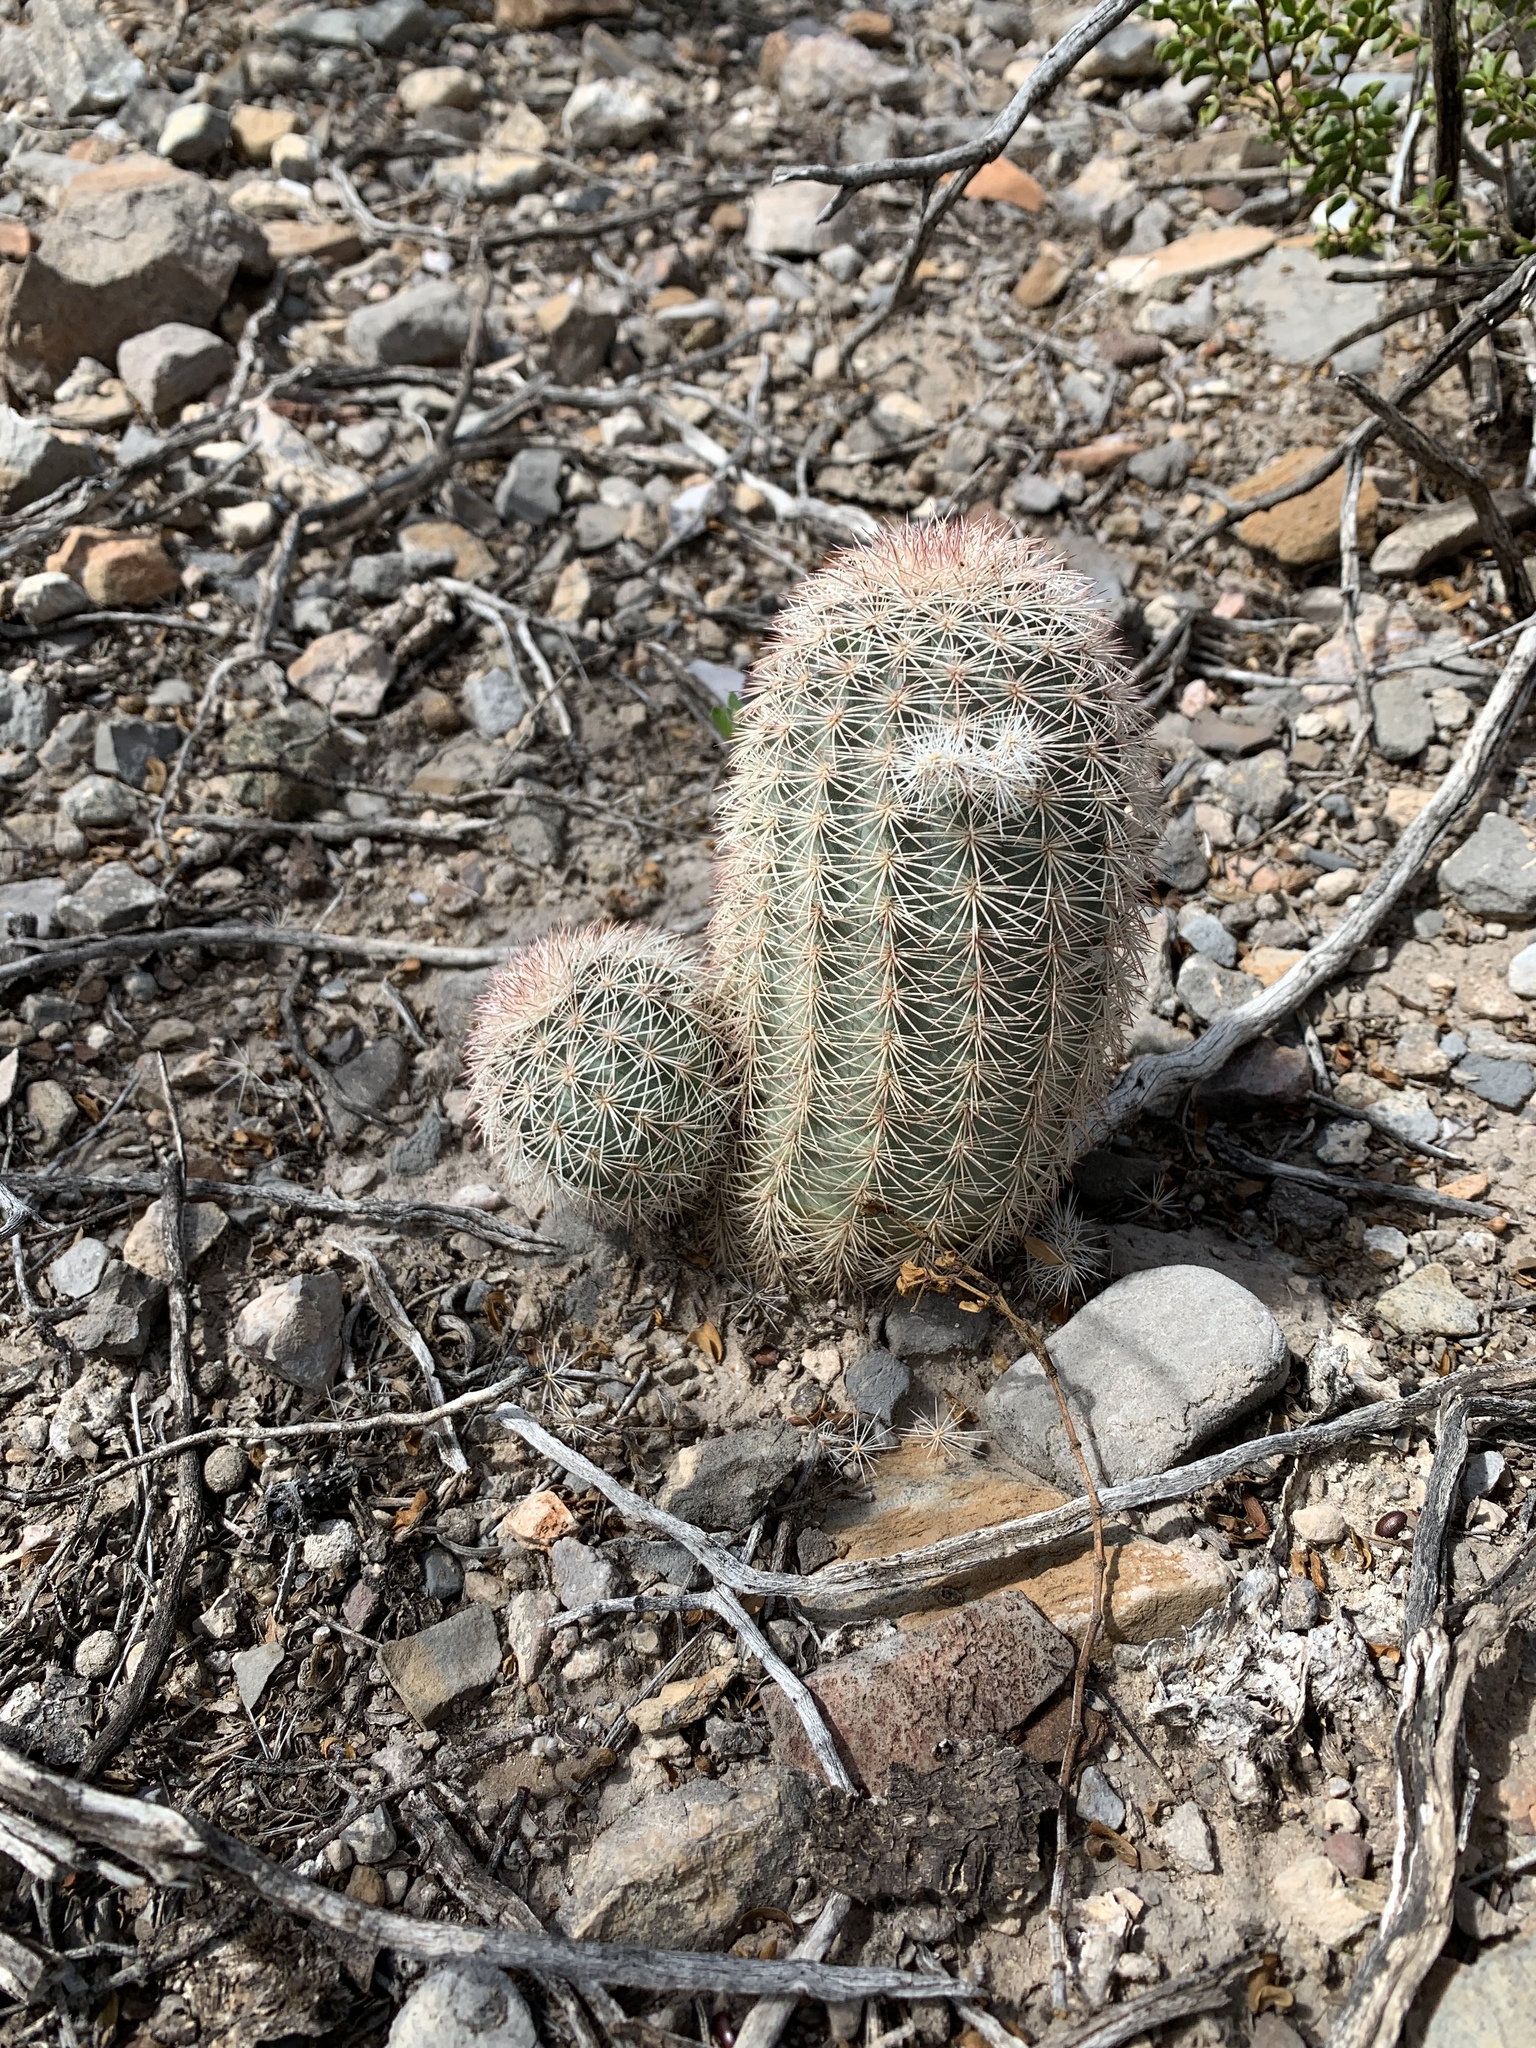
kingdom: Plantae
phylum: Tracheophyta
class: Magnoliopsida
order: Caryophyllales
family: Cactaceae
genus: Echinocereus
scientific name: Echinocereus dasyacanthus
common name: Spiny hedgehog cactus
